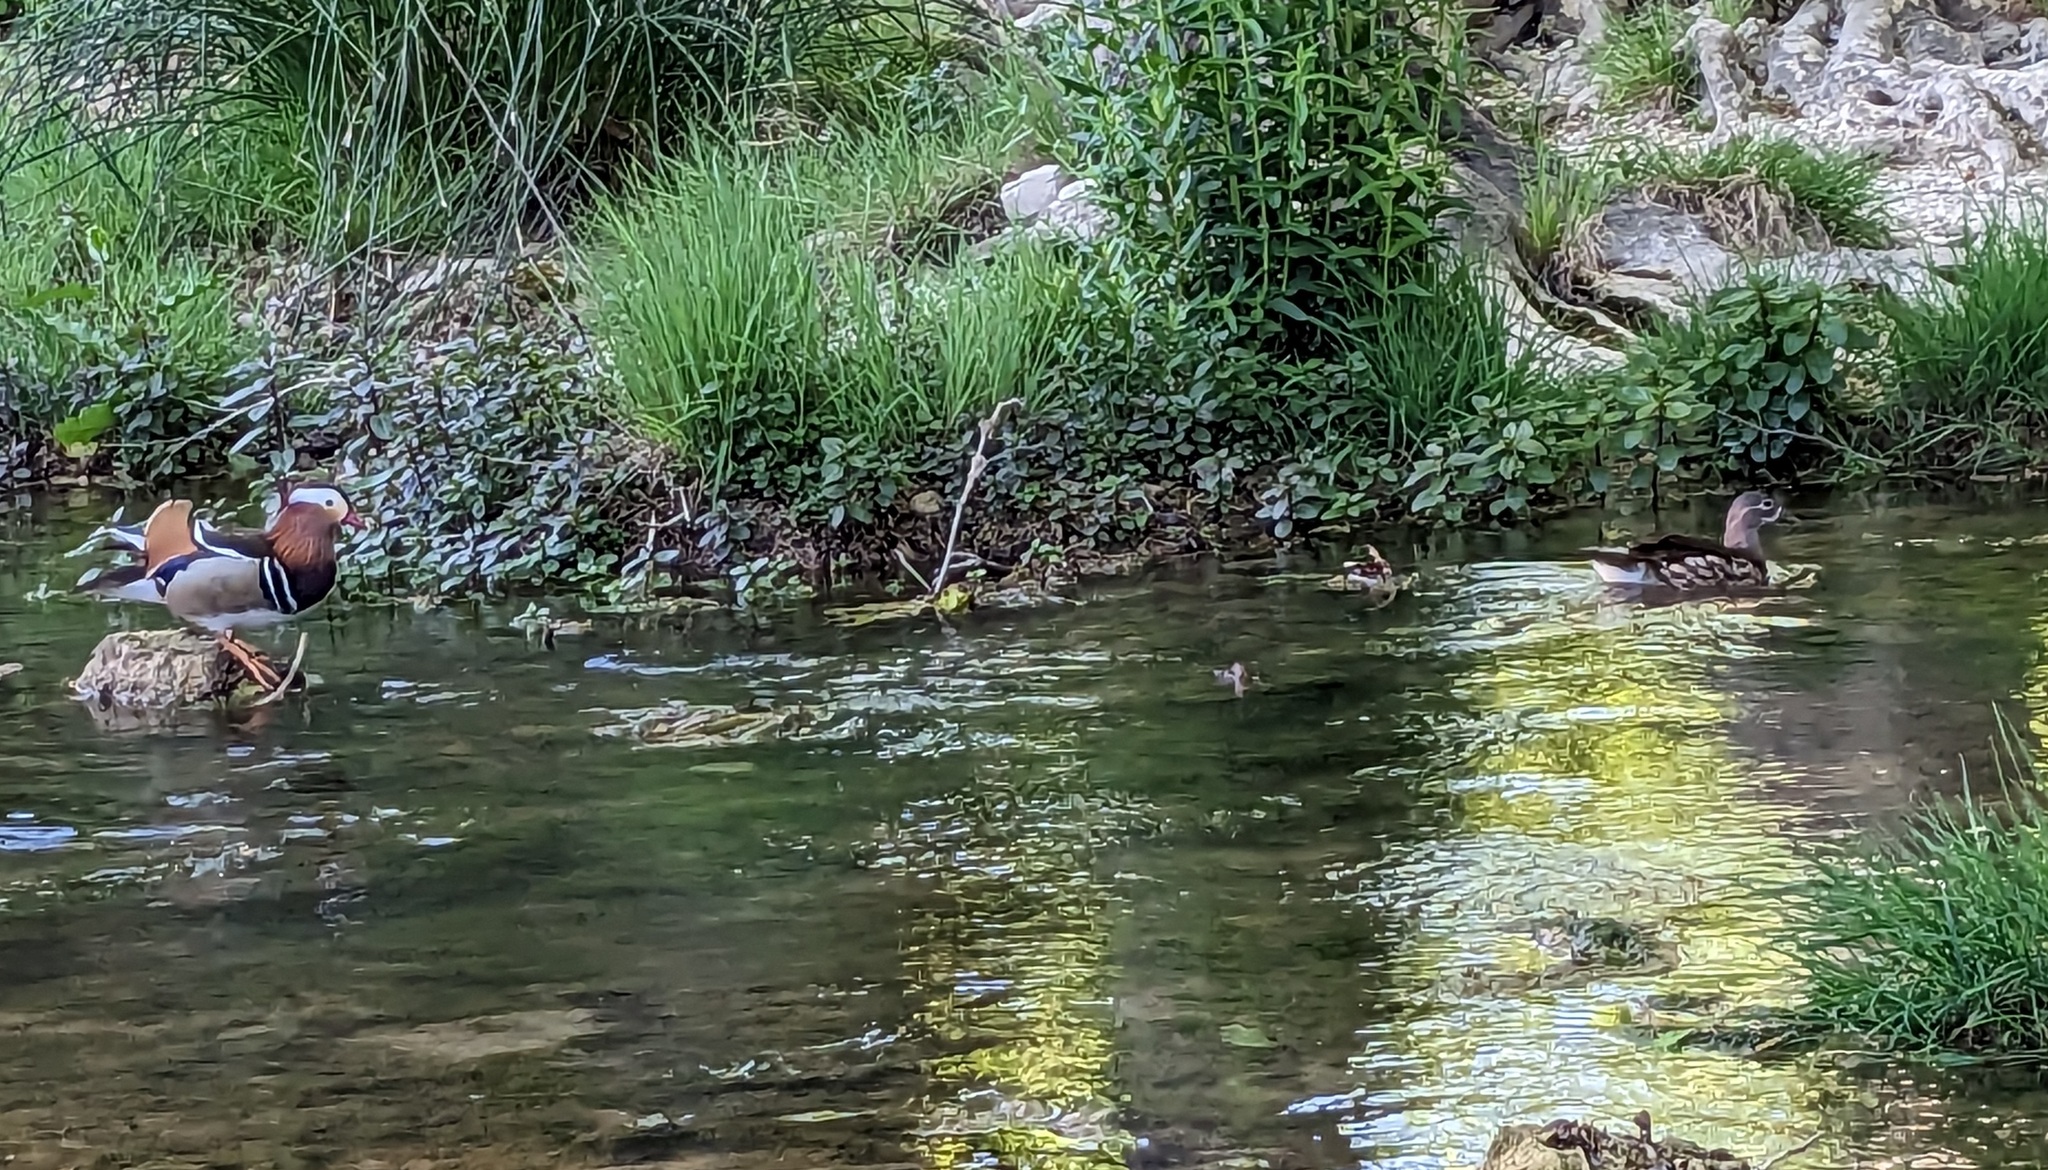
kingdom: Animalia
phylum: Chordata
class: Aves
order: Anseriformes
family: Anatidae
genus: Aix
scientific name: Aix galericulata
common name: Mandarin duck
